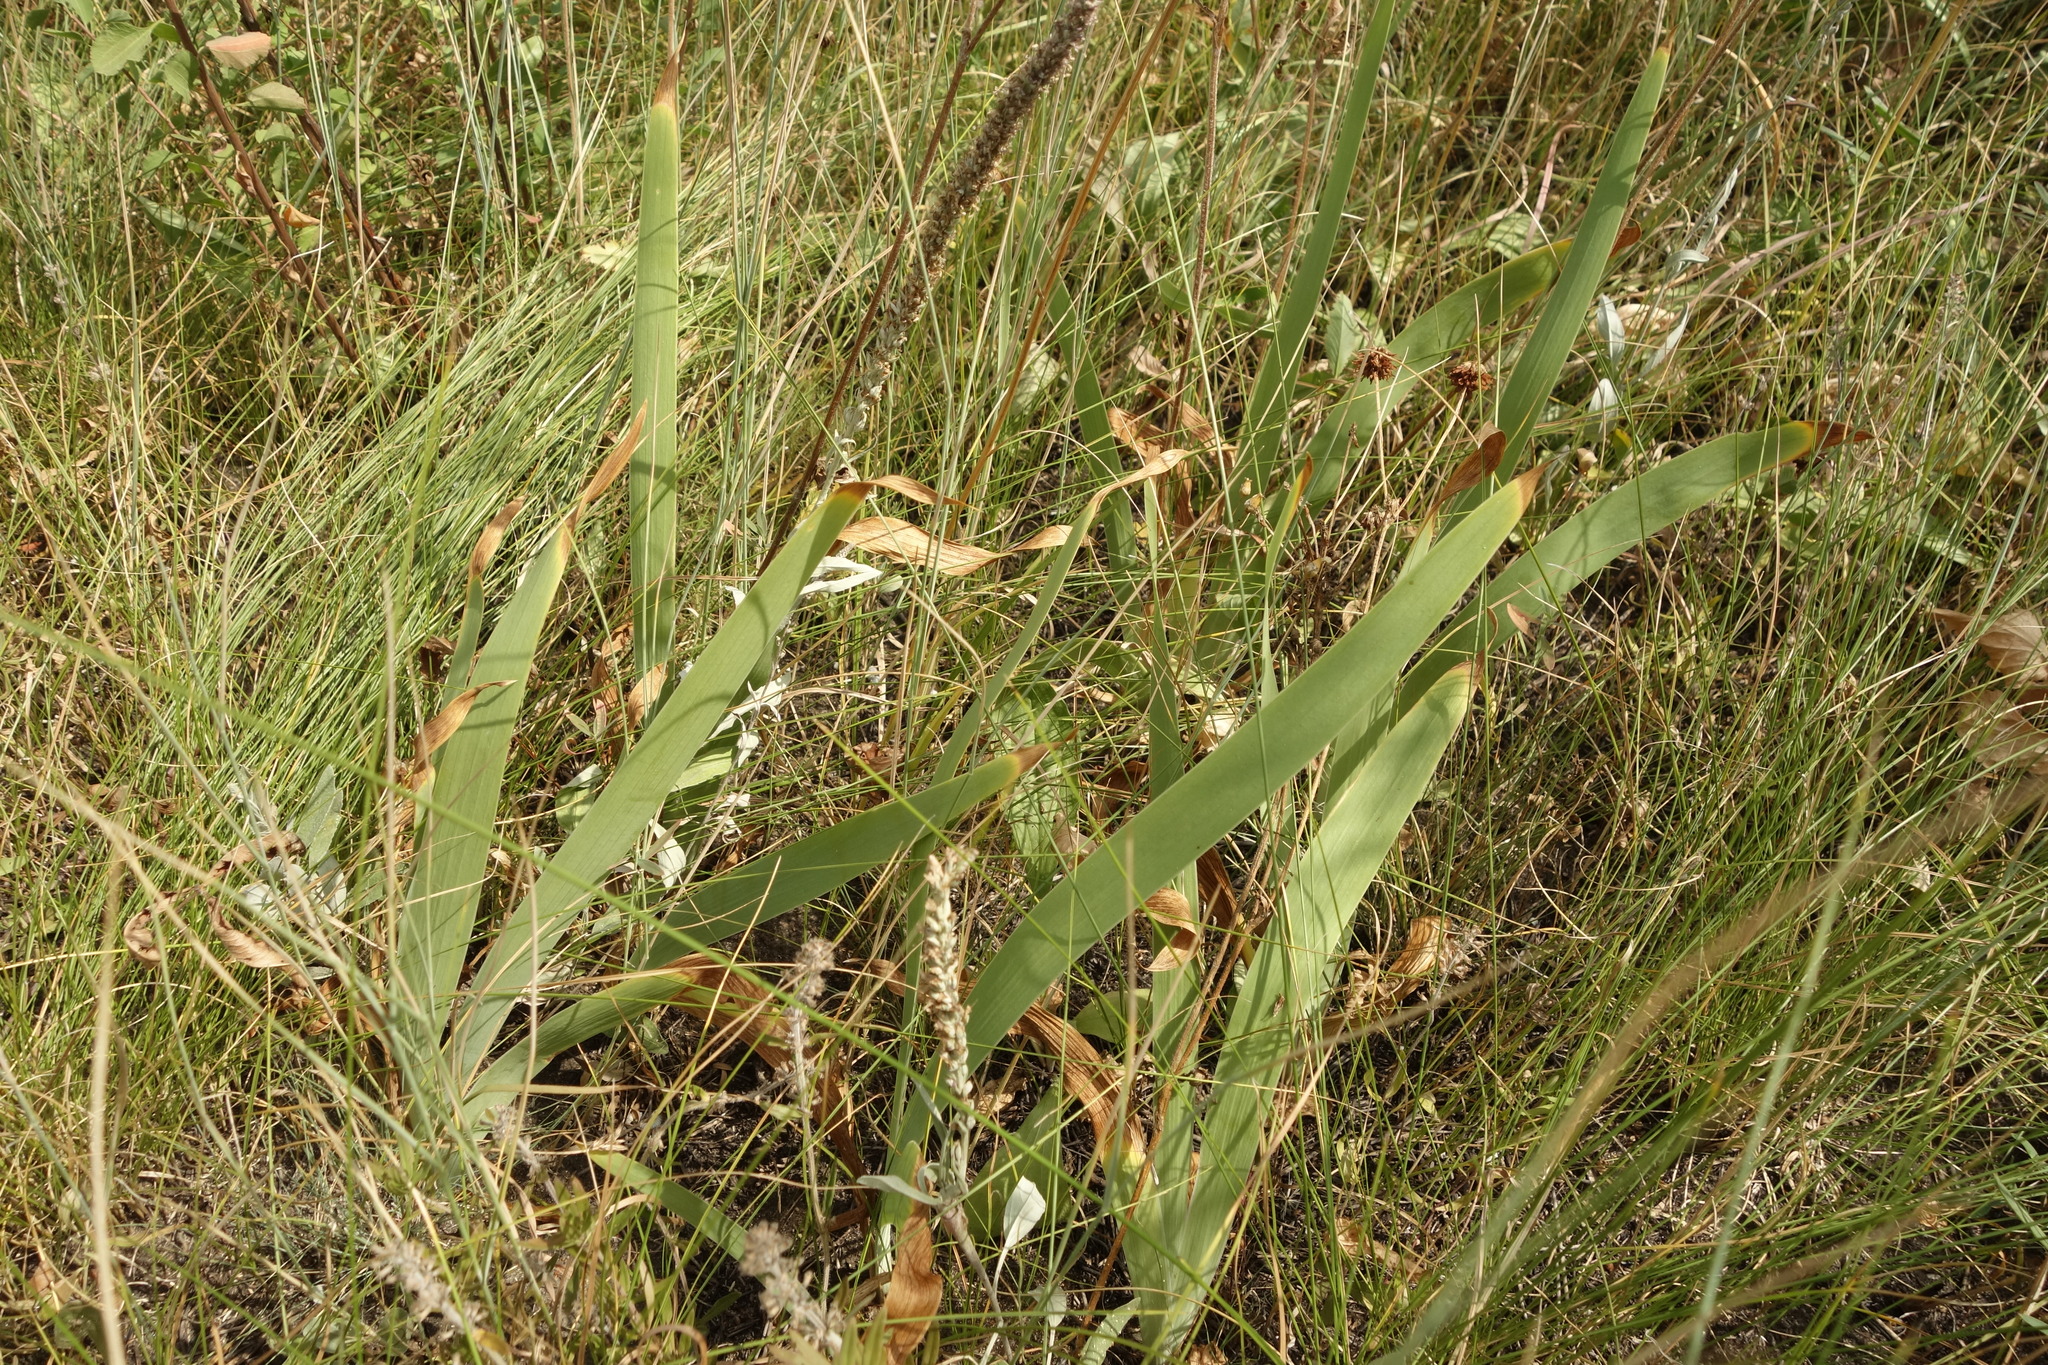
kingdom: Plantae
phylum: Tracheophyta
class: Liliopsida
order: Asparagales
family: Iridaceae
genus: Iris
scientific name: Iris aphylla
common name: Stool iris
